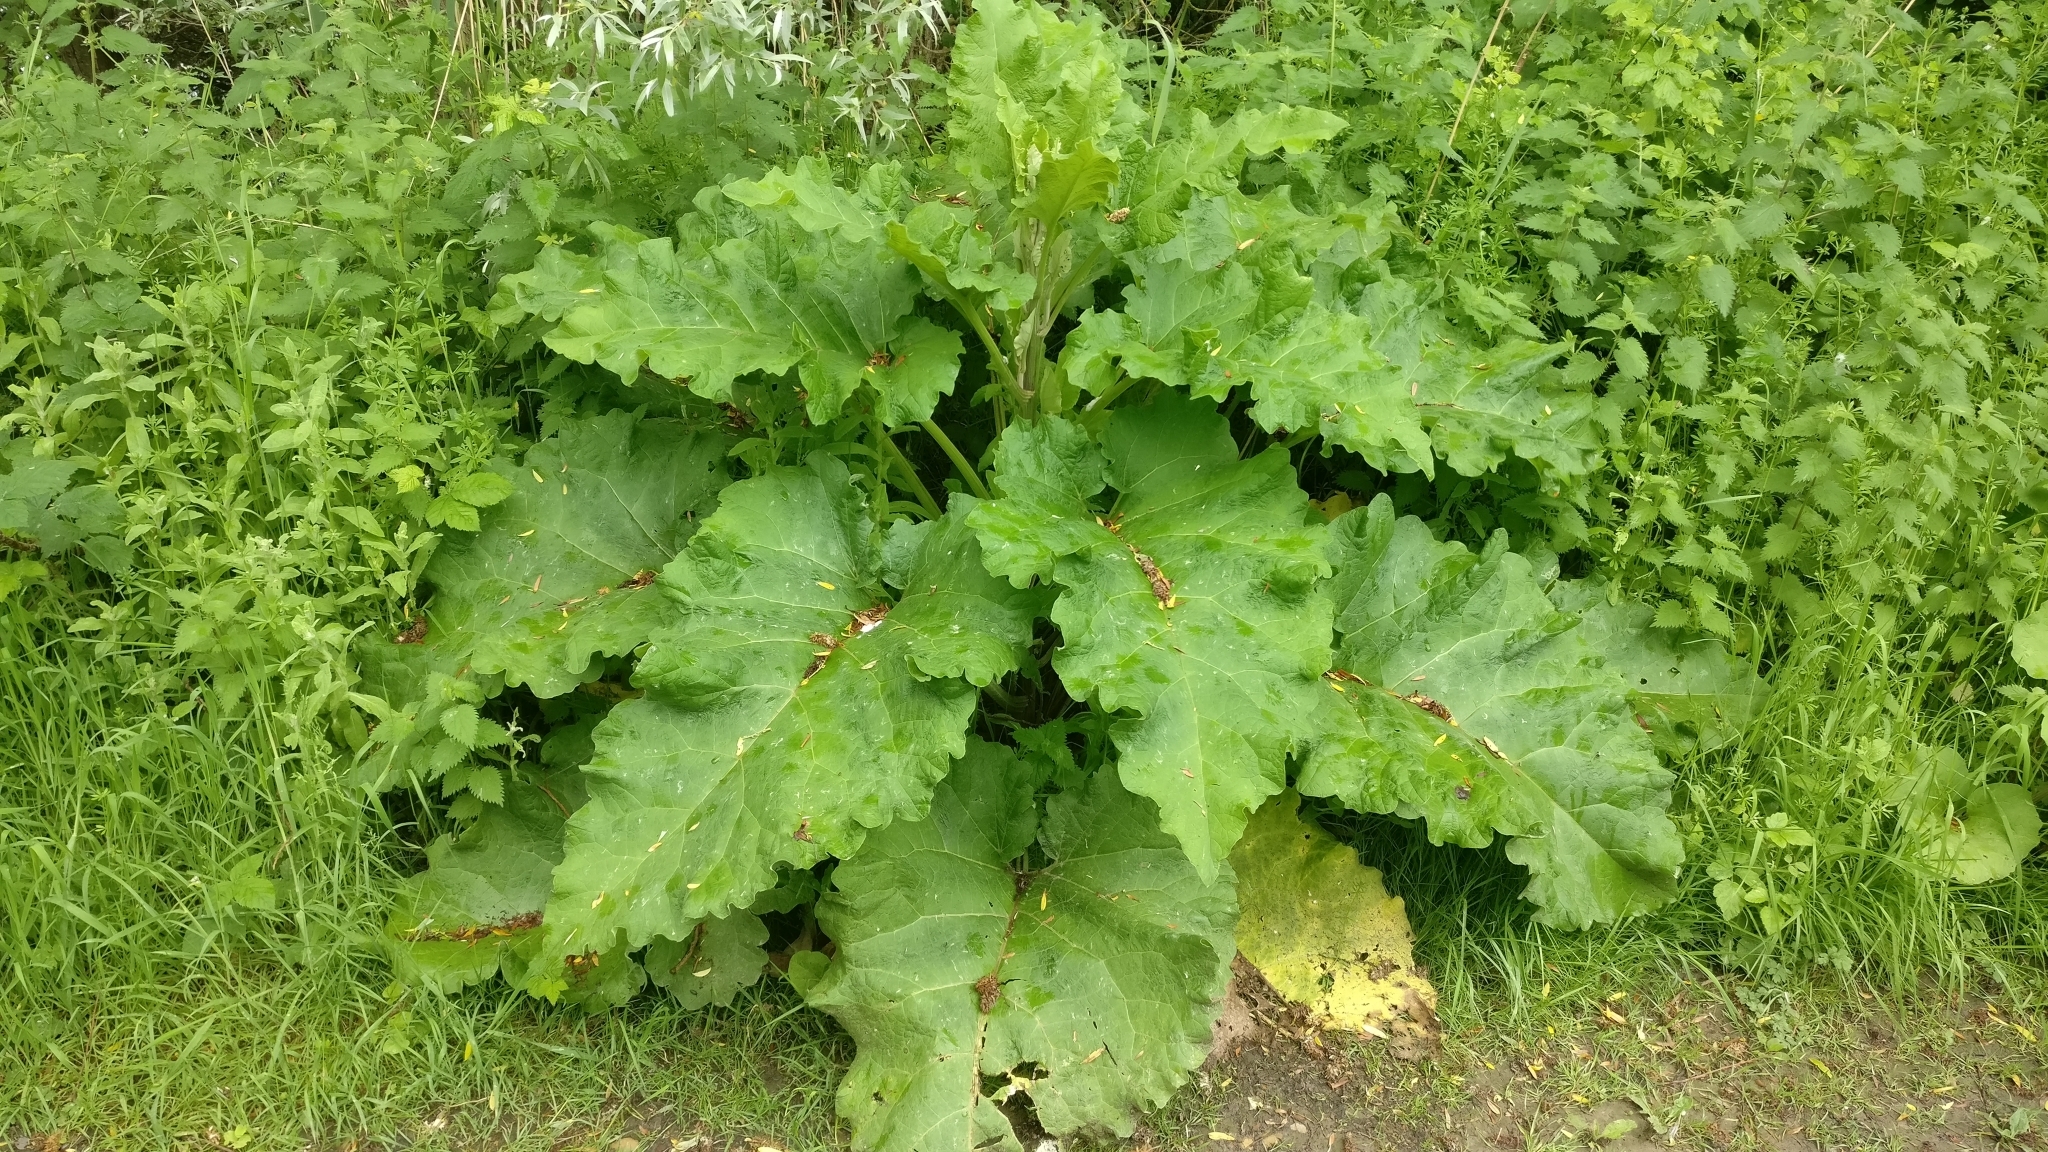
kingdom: Plantae
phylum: Tracheophyta
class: Magnoliopsida
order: Asterales
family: Asteraceae
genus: Arctium
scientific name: Arctium lappa
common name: Greater burdock
